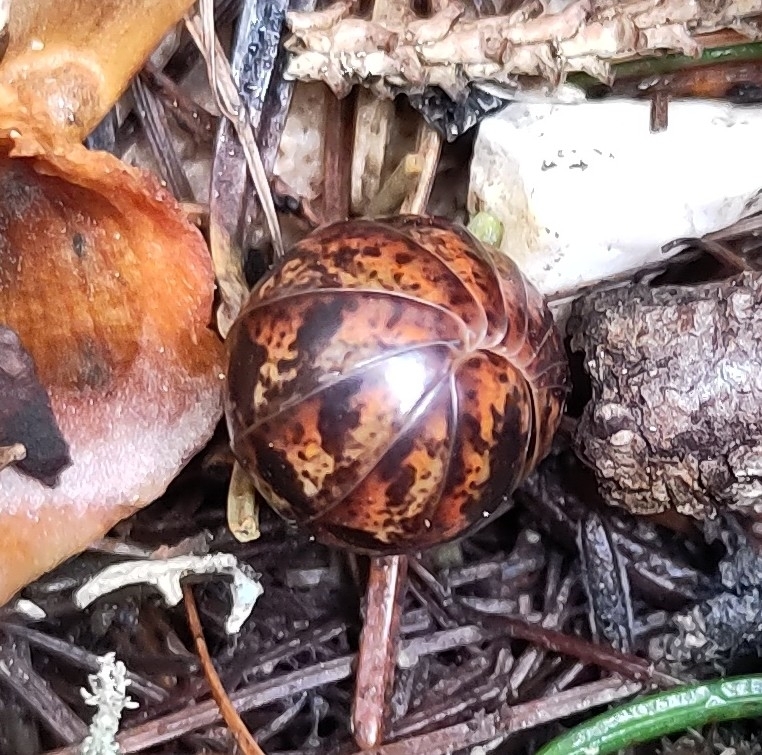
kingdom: Animalia
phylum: Arthropoda
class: Diplopoda
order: Glomerida
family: Glomeridae
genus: Glomeris
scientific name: Glomeris klugii
